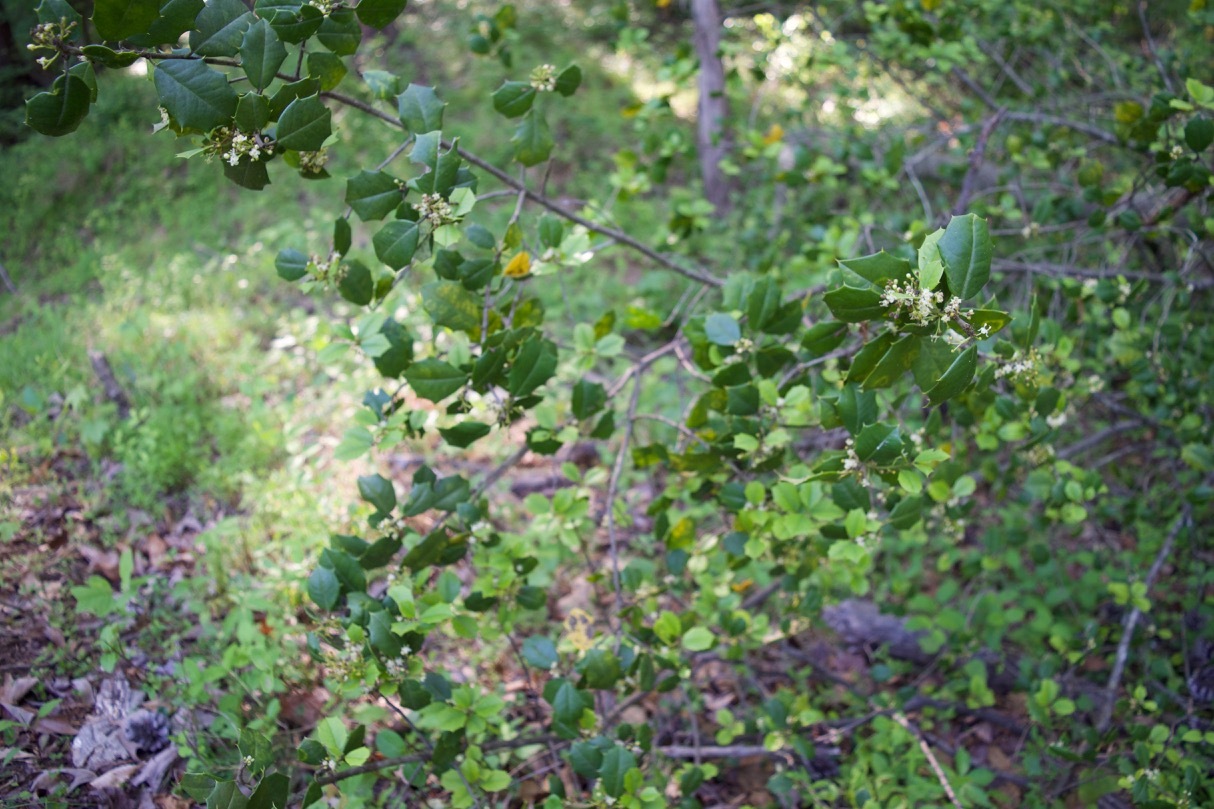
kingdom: Plantae
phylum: Tracheophyta
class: Magnoliopsida
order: Aquifoliales
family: Aquifoliaceae
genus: Ilex
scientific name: Ilex opaca
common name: American holly
